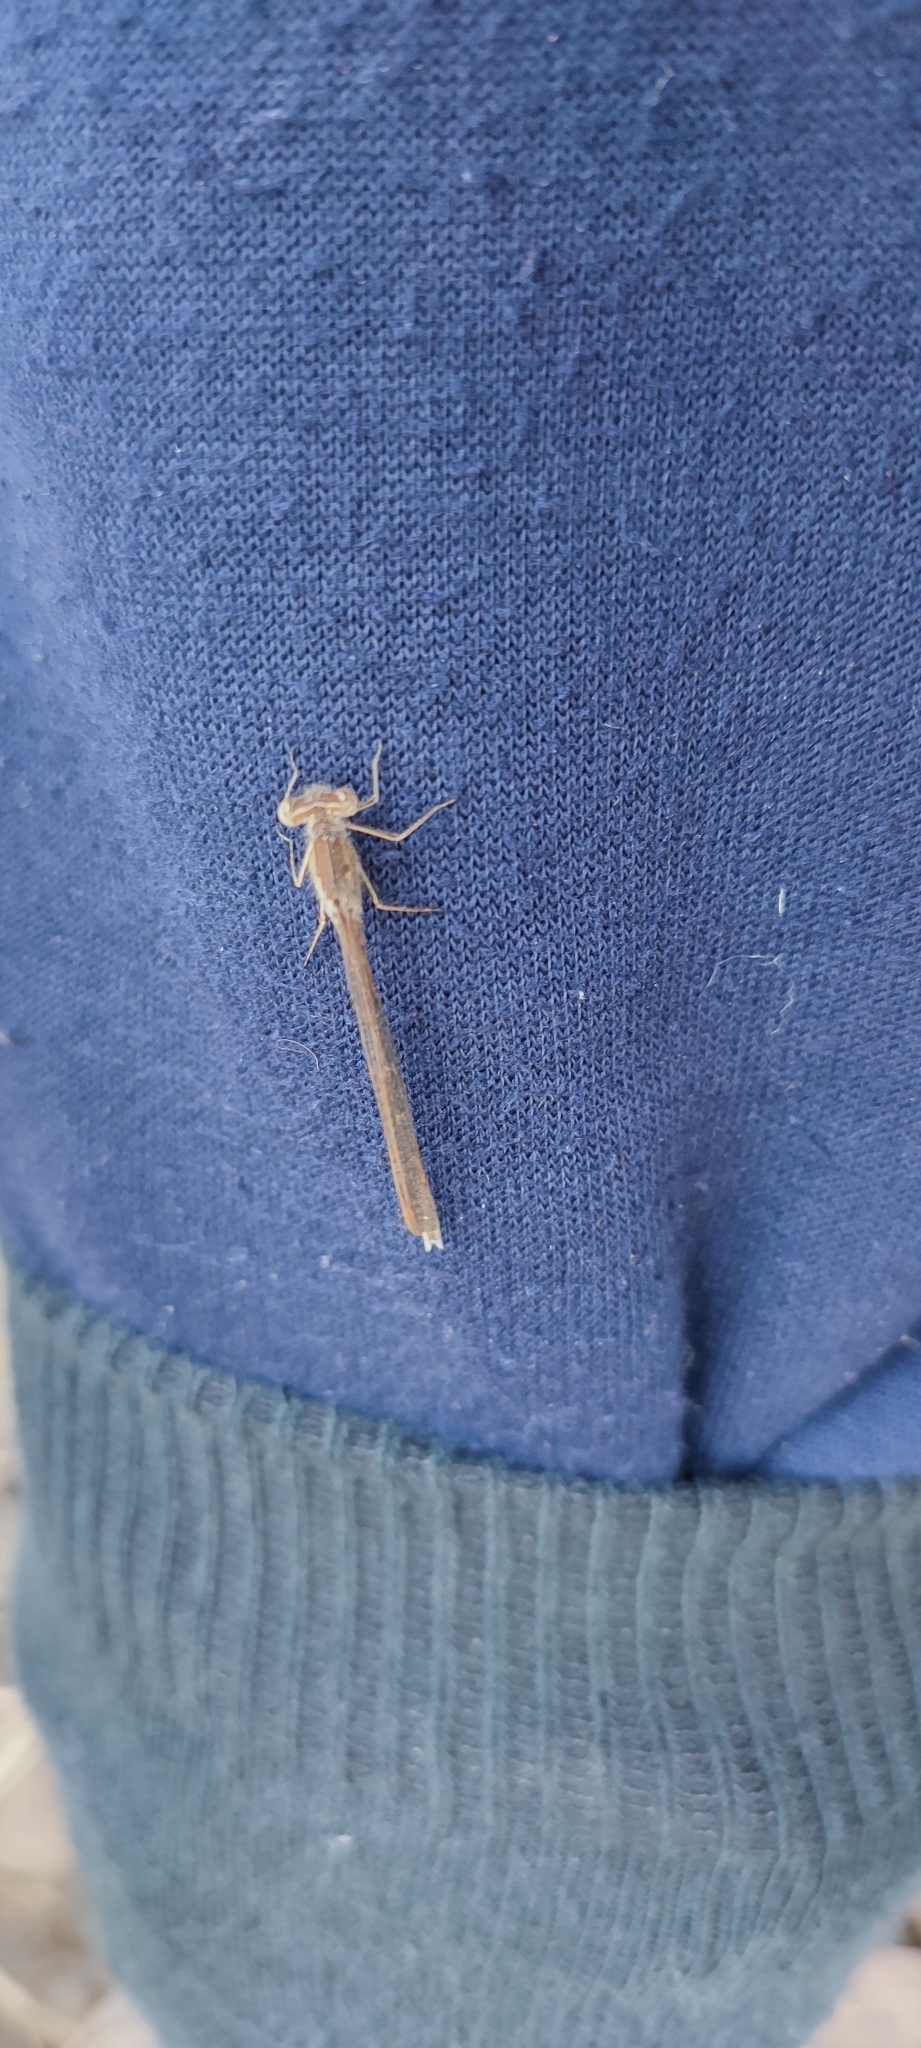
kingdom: Animalia
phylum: Arthropoda
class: Insecta
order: Odonata
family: Lestidae
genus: Sympecma
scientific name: Sympecma paedisca
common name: Siberian winter damsel
